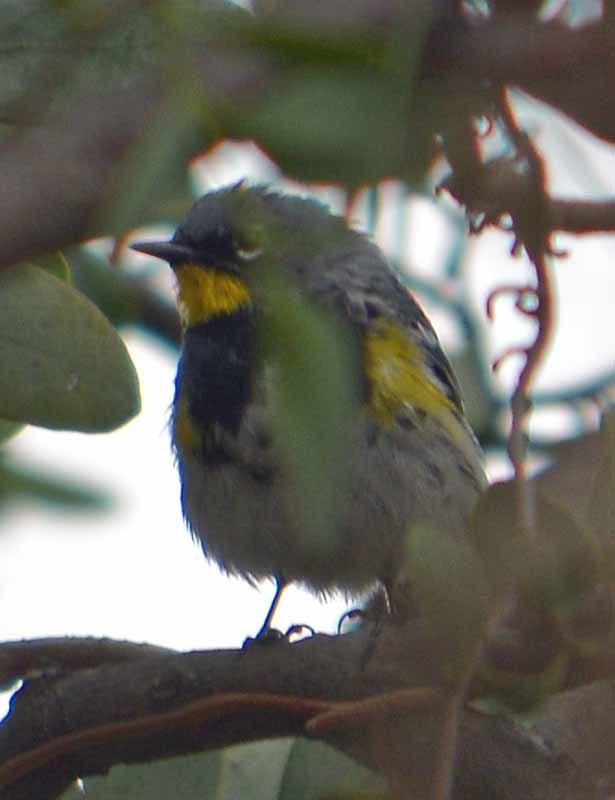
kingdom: Animalia
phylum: Chordata
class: Aves
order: Passeriformes
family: Parulidae
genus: Setophaga
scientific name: Setophaga auduboni
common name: Audubon's warbler
